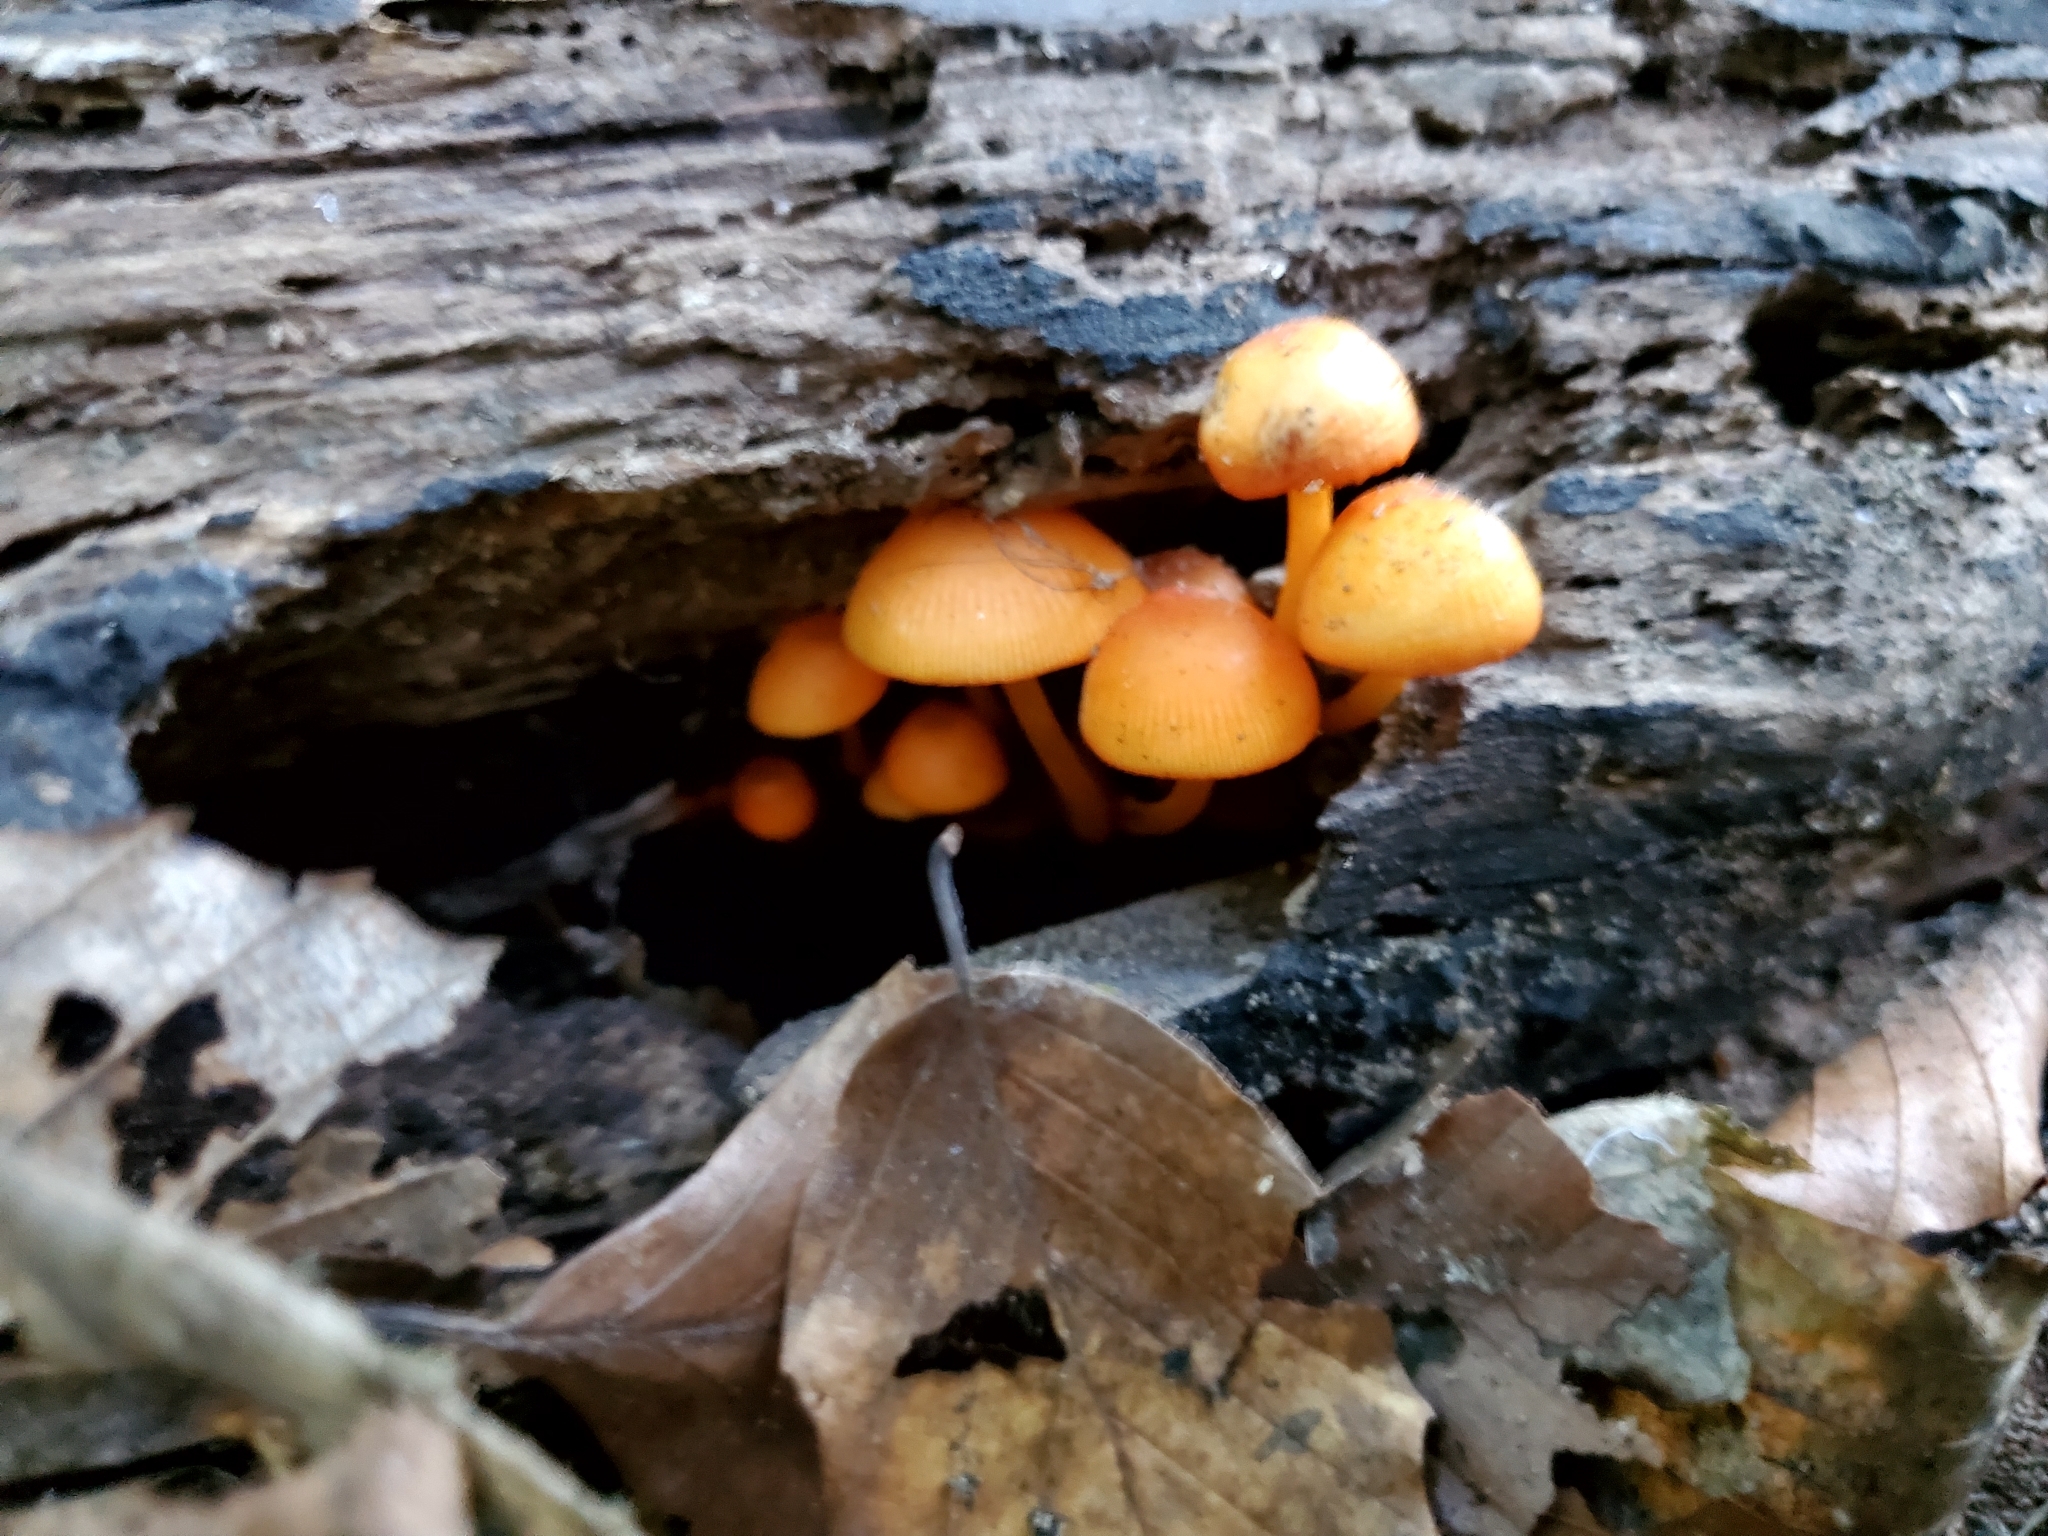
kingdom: Fungi
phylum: Basidiomycota
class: Agaricomycetes
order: Agaricales
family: Mycenaceae
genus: Mycena
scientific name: Mycena leaiana
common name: Orange mycena
